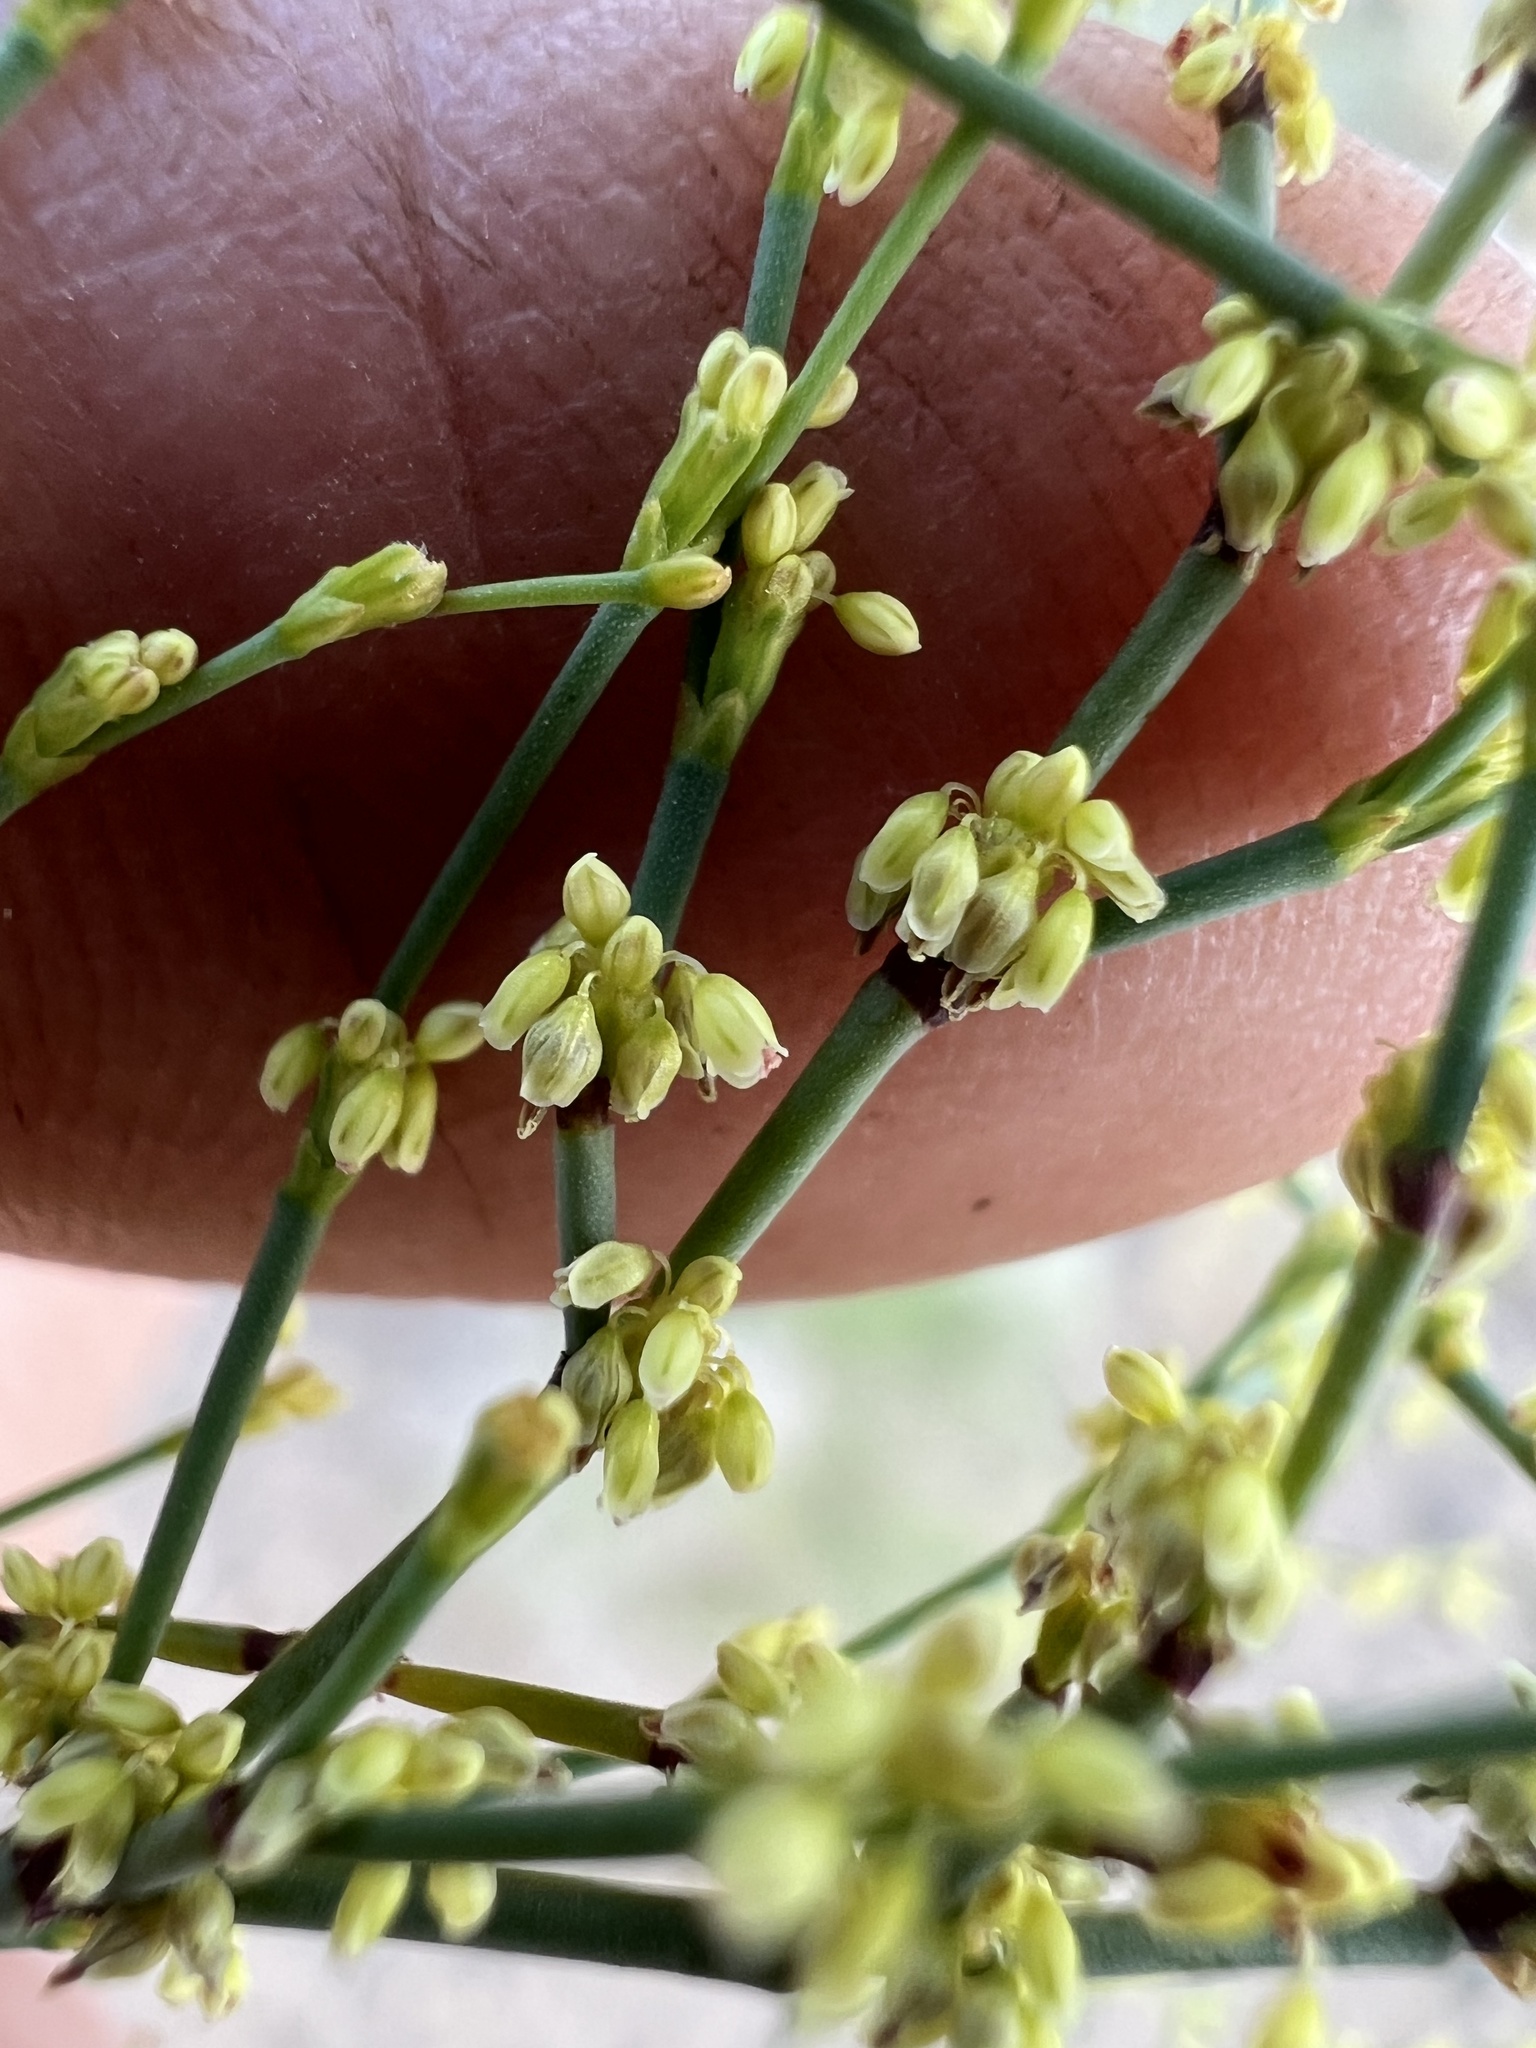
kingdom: Plantae
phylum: Tracheophyta
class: Magnoliopsida
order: Caryophyllales
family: Polygonaceae
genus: Eriogonum
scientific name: Eriogonum brachyanthum
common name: Short-flower wild buckwheat
